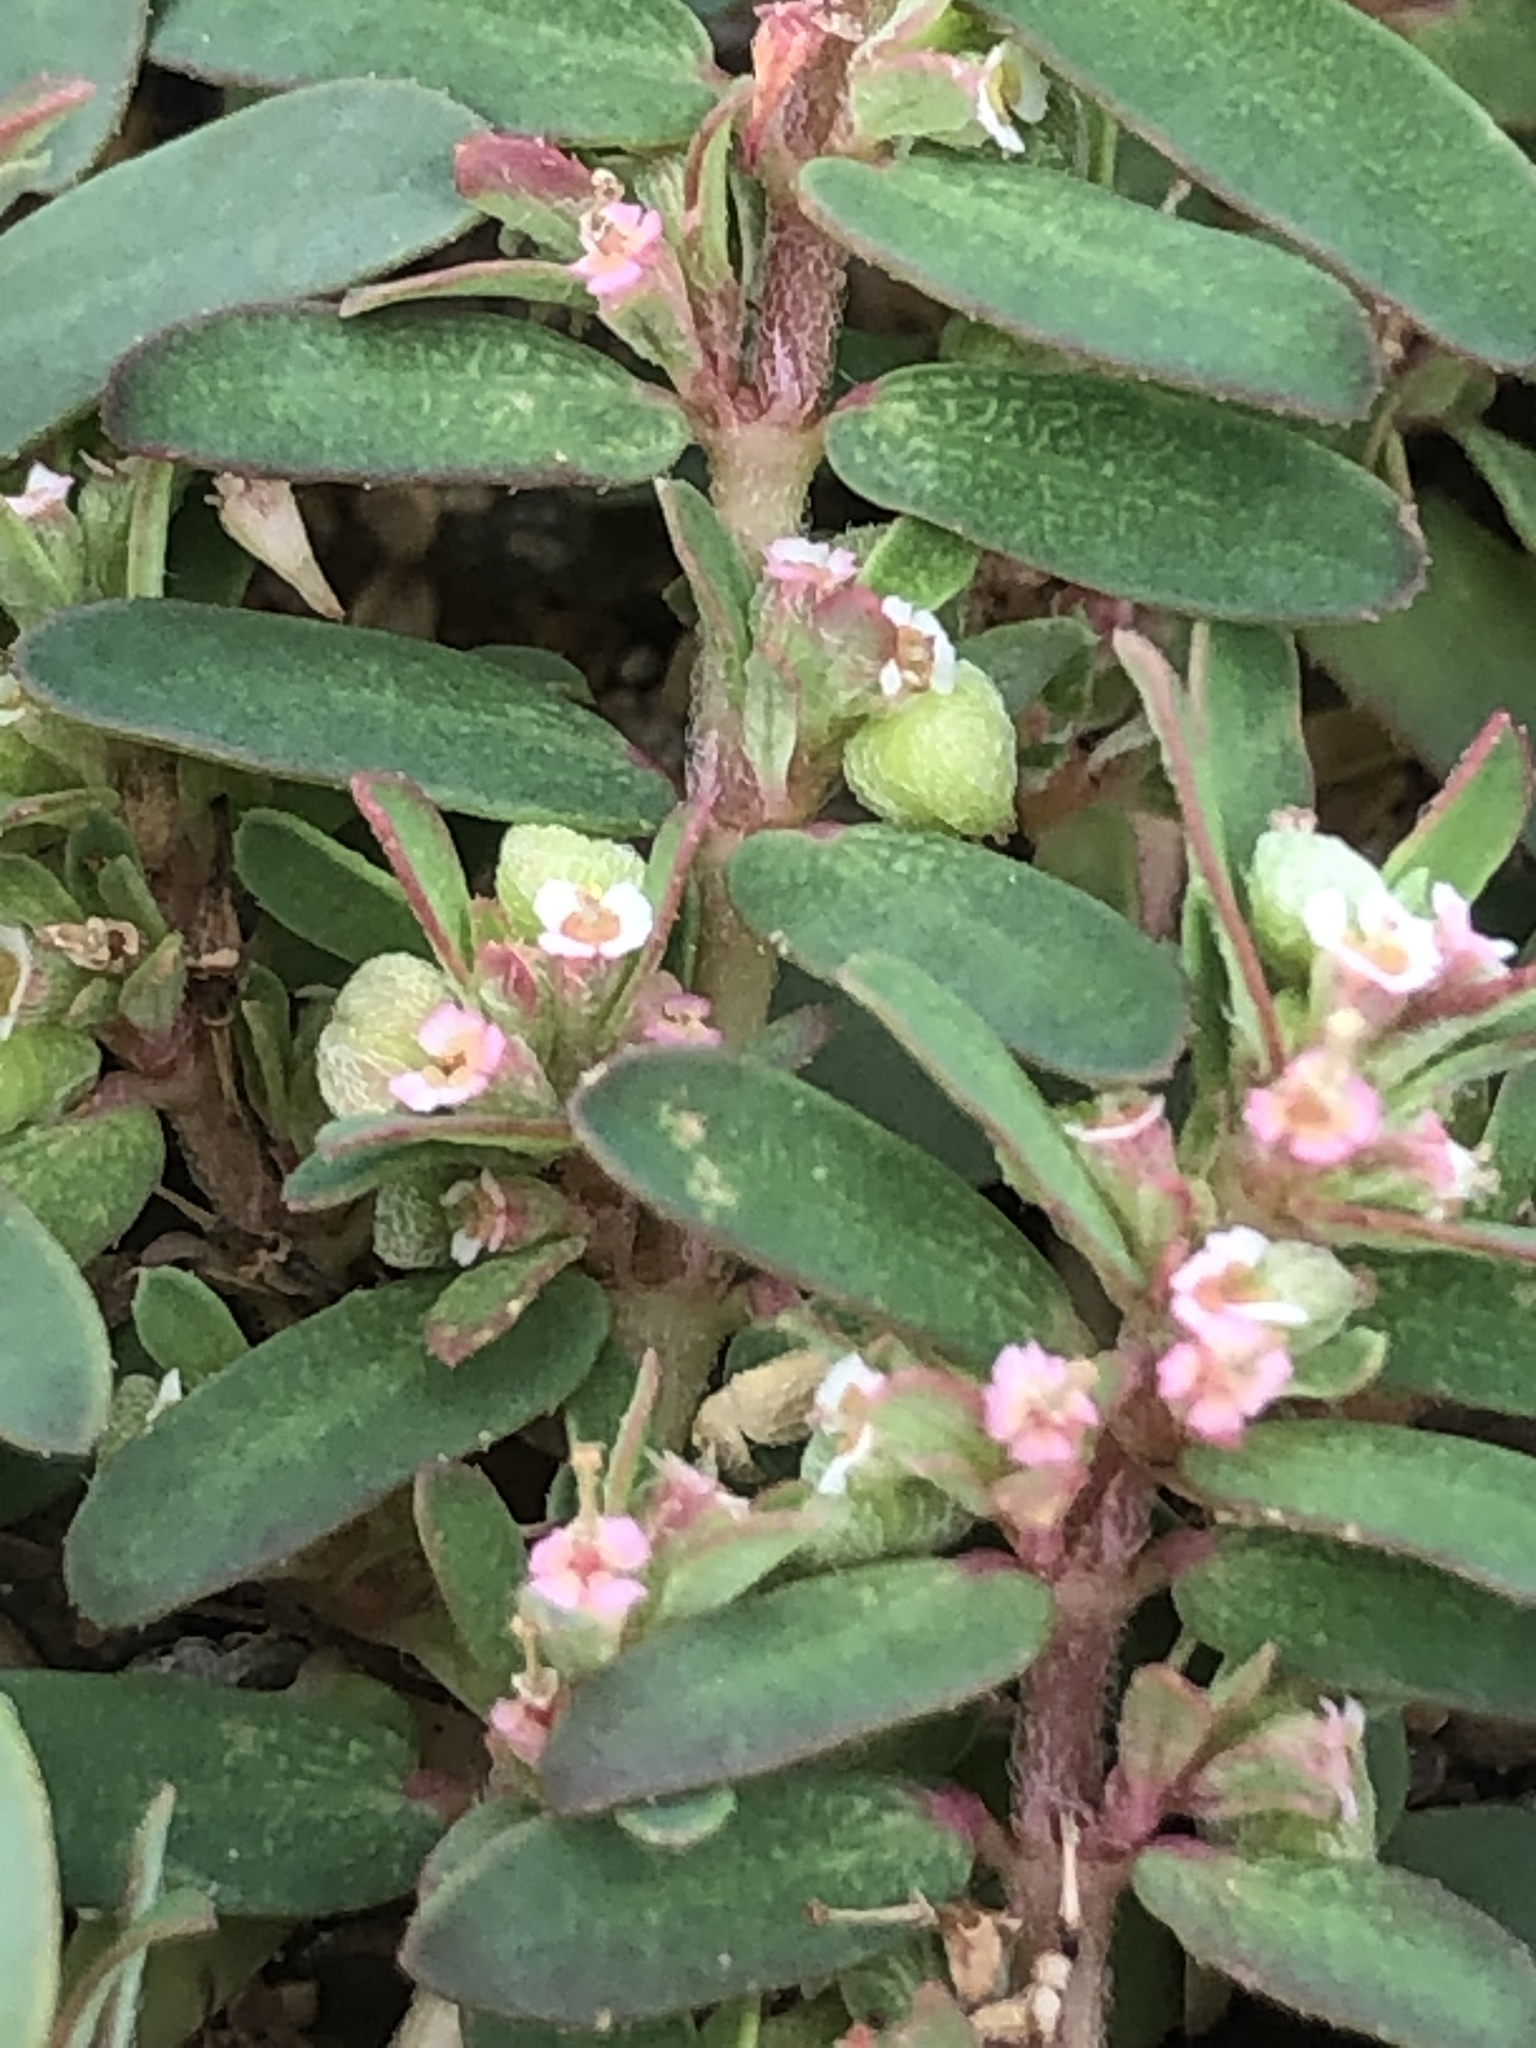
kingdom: Plantae
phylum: Tracheophyta
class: Magnoliopsida
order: Malpighiales
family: Euphorbiaceae
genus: Euphorbia
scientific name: Euphorbia maculata
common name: Spotted spurge
